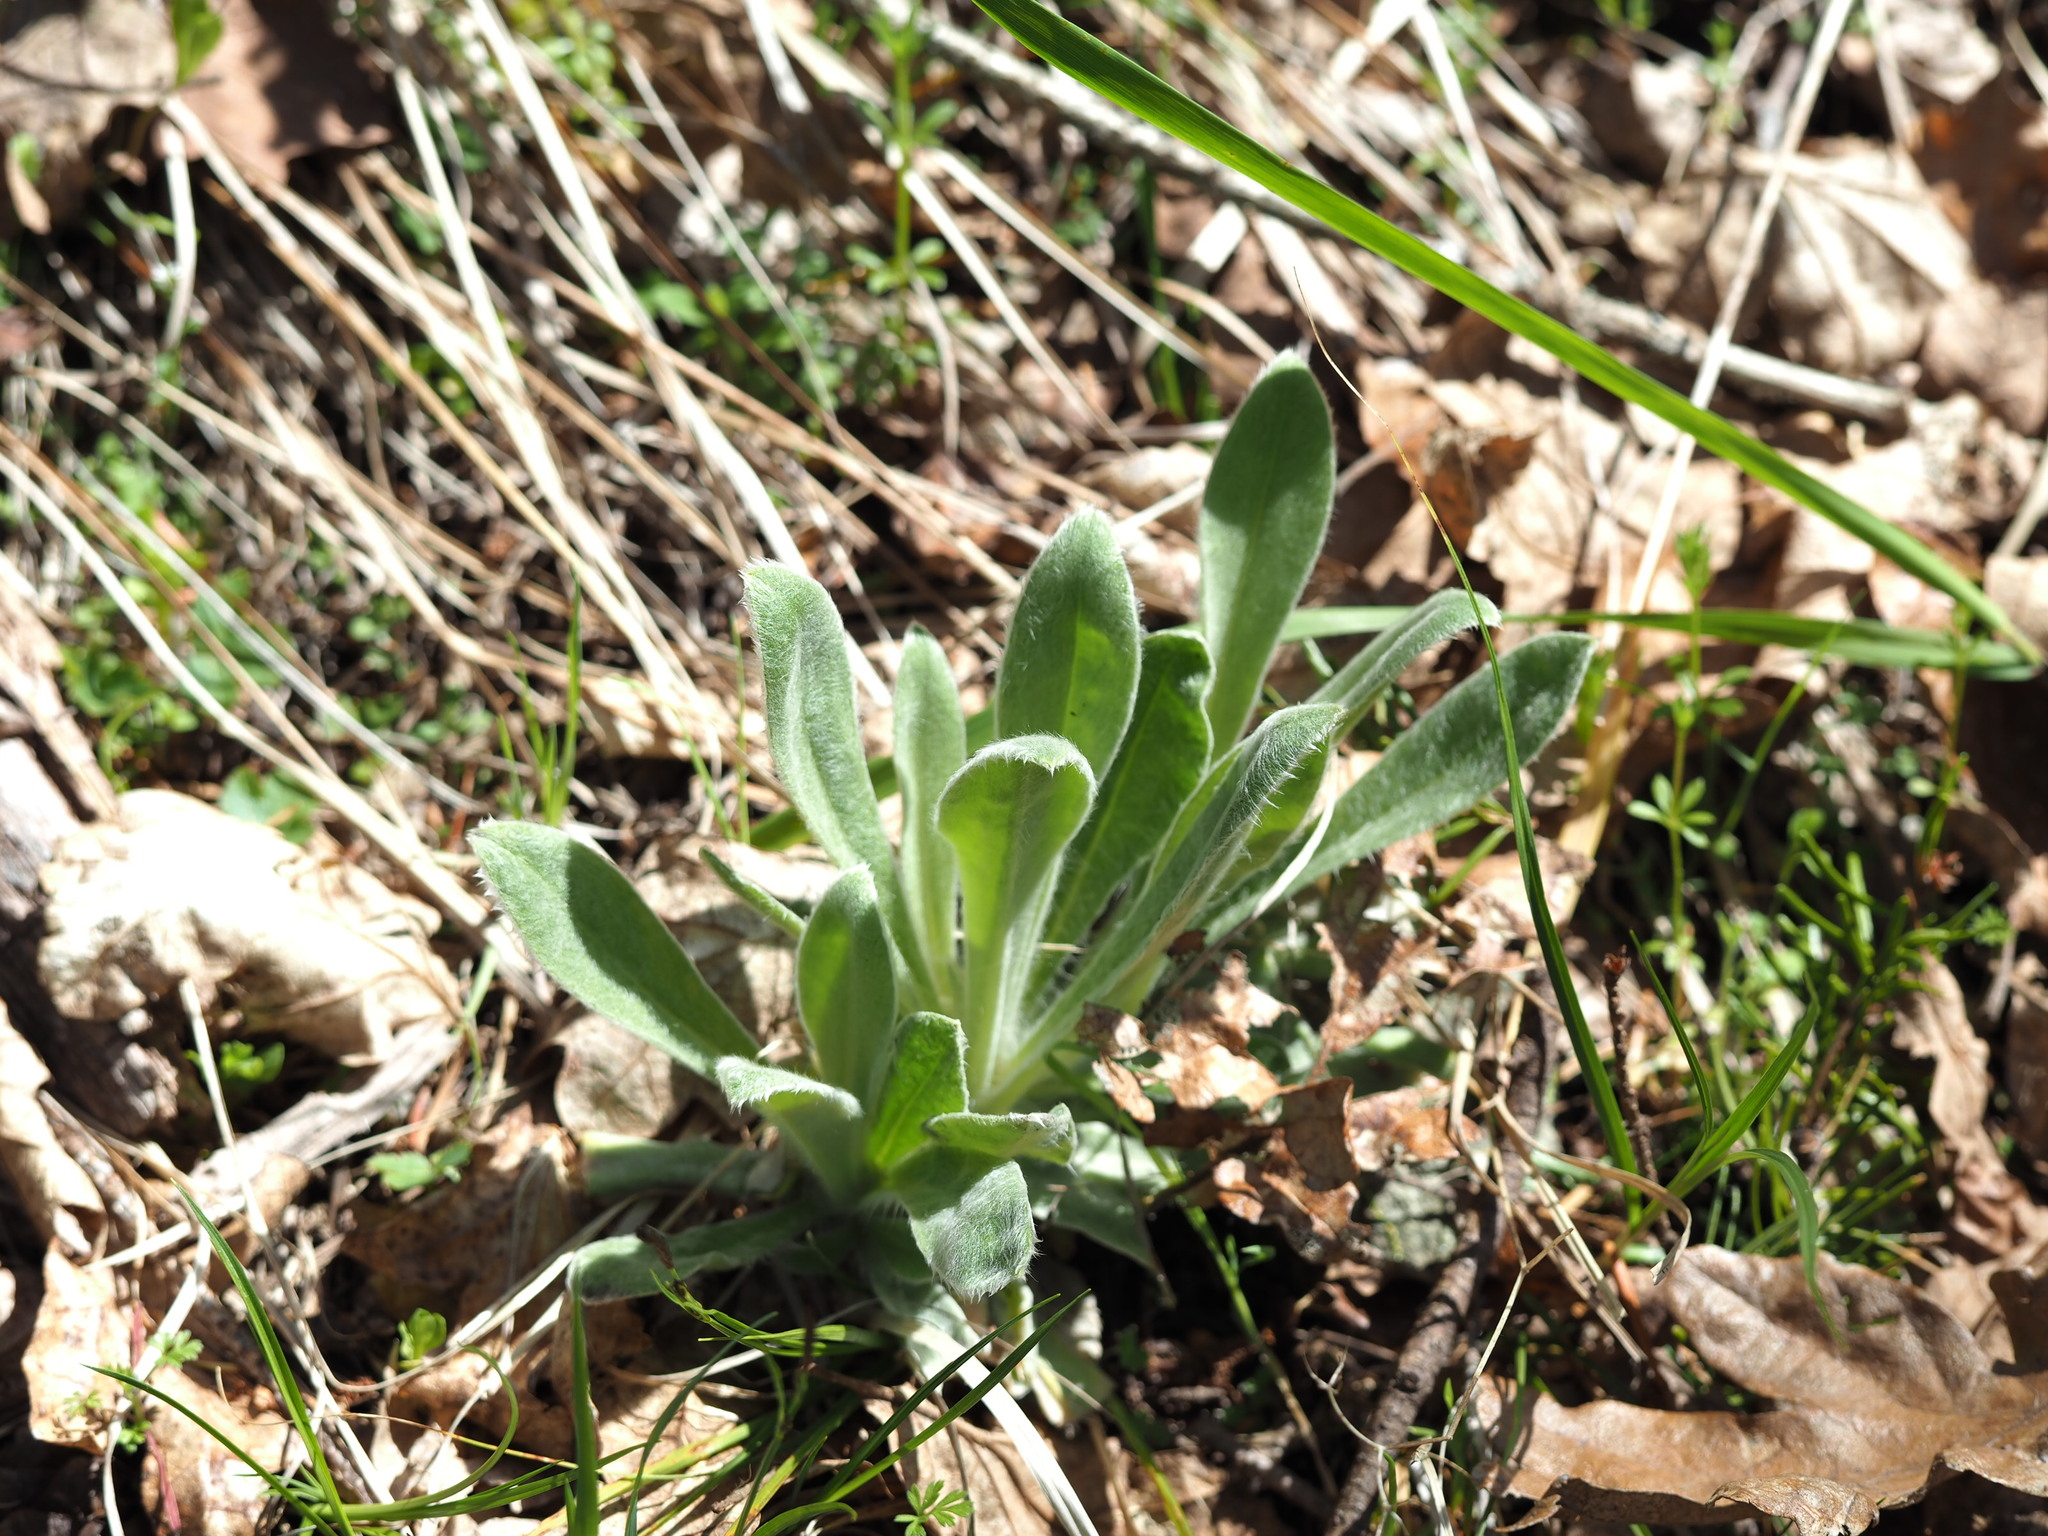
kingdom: Plantae
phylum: Tracheophyta
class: Magnoliopsida
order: Caryophyllales
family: Caryophyllaceae
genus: Silene
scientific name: Silene coronaria
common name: Rose campion
